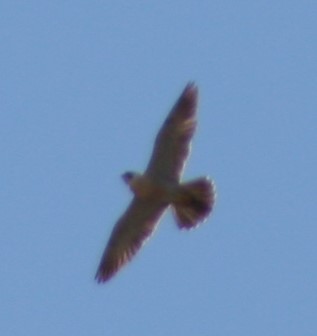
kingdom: Animalia
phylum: Chordata
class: Aves
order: Falconiformes
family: Falconidae
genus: Falco
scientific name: Falco peregrinus
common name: Peregrine falcon
